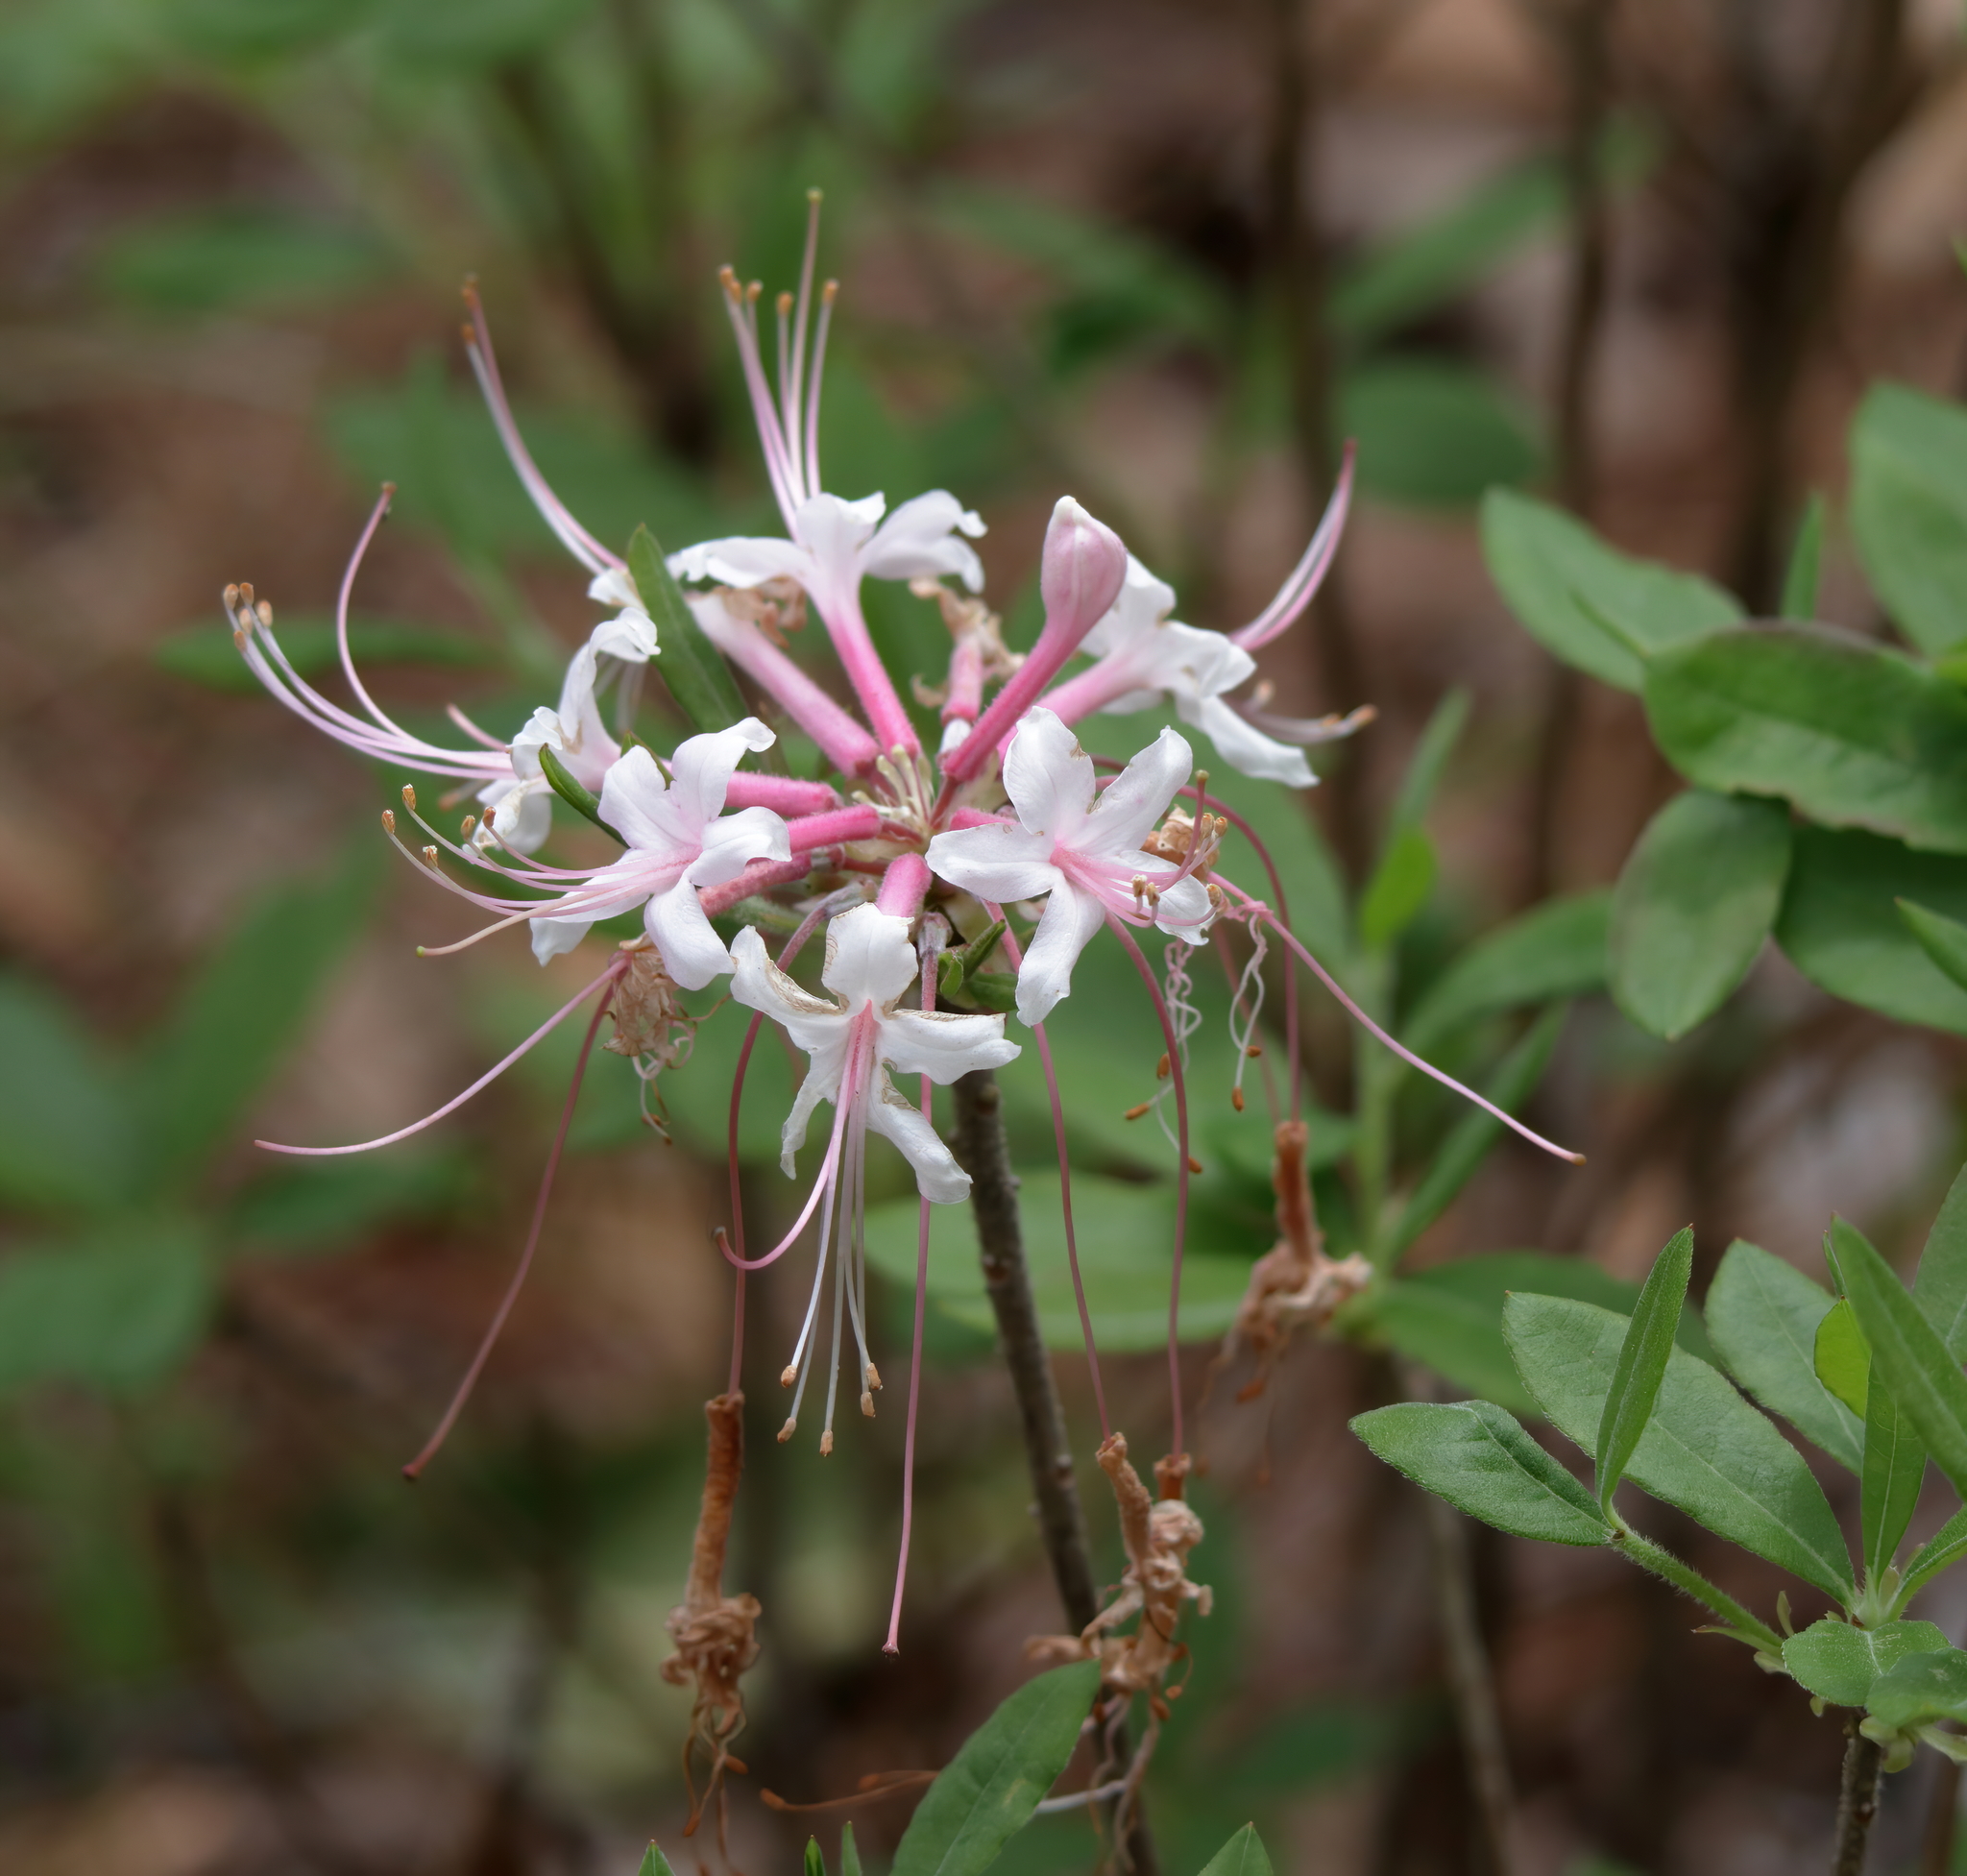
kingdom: Plantae
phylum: Tracheophyta
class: Magnoliopsida
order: Ericales
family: Ericaceae
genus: Rhododendron
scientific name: Rhododendron canescens
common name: Mountain azalea
